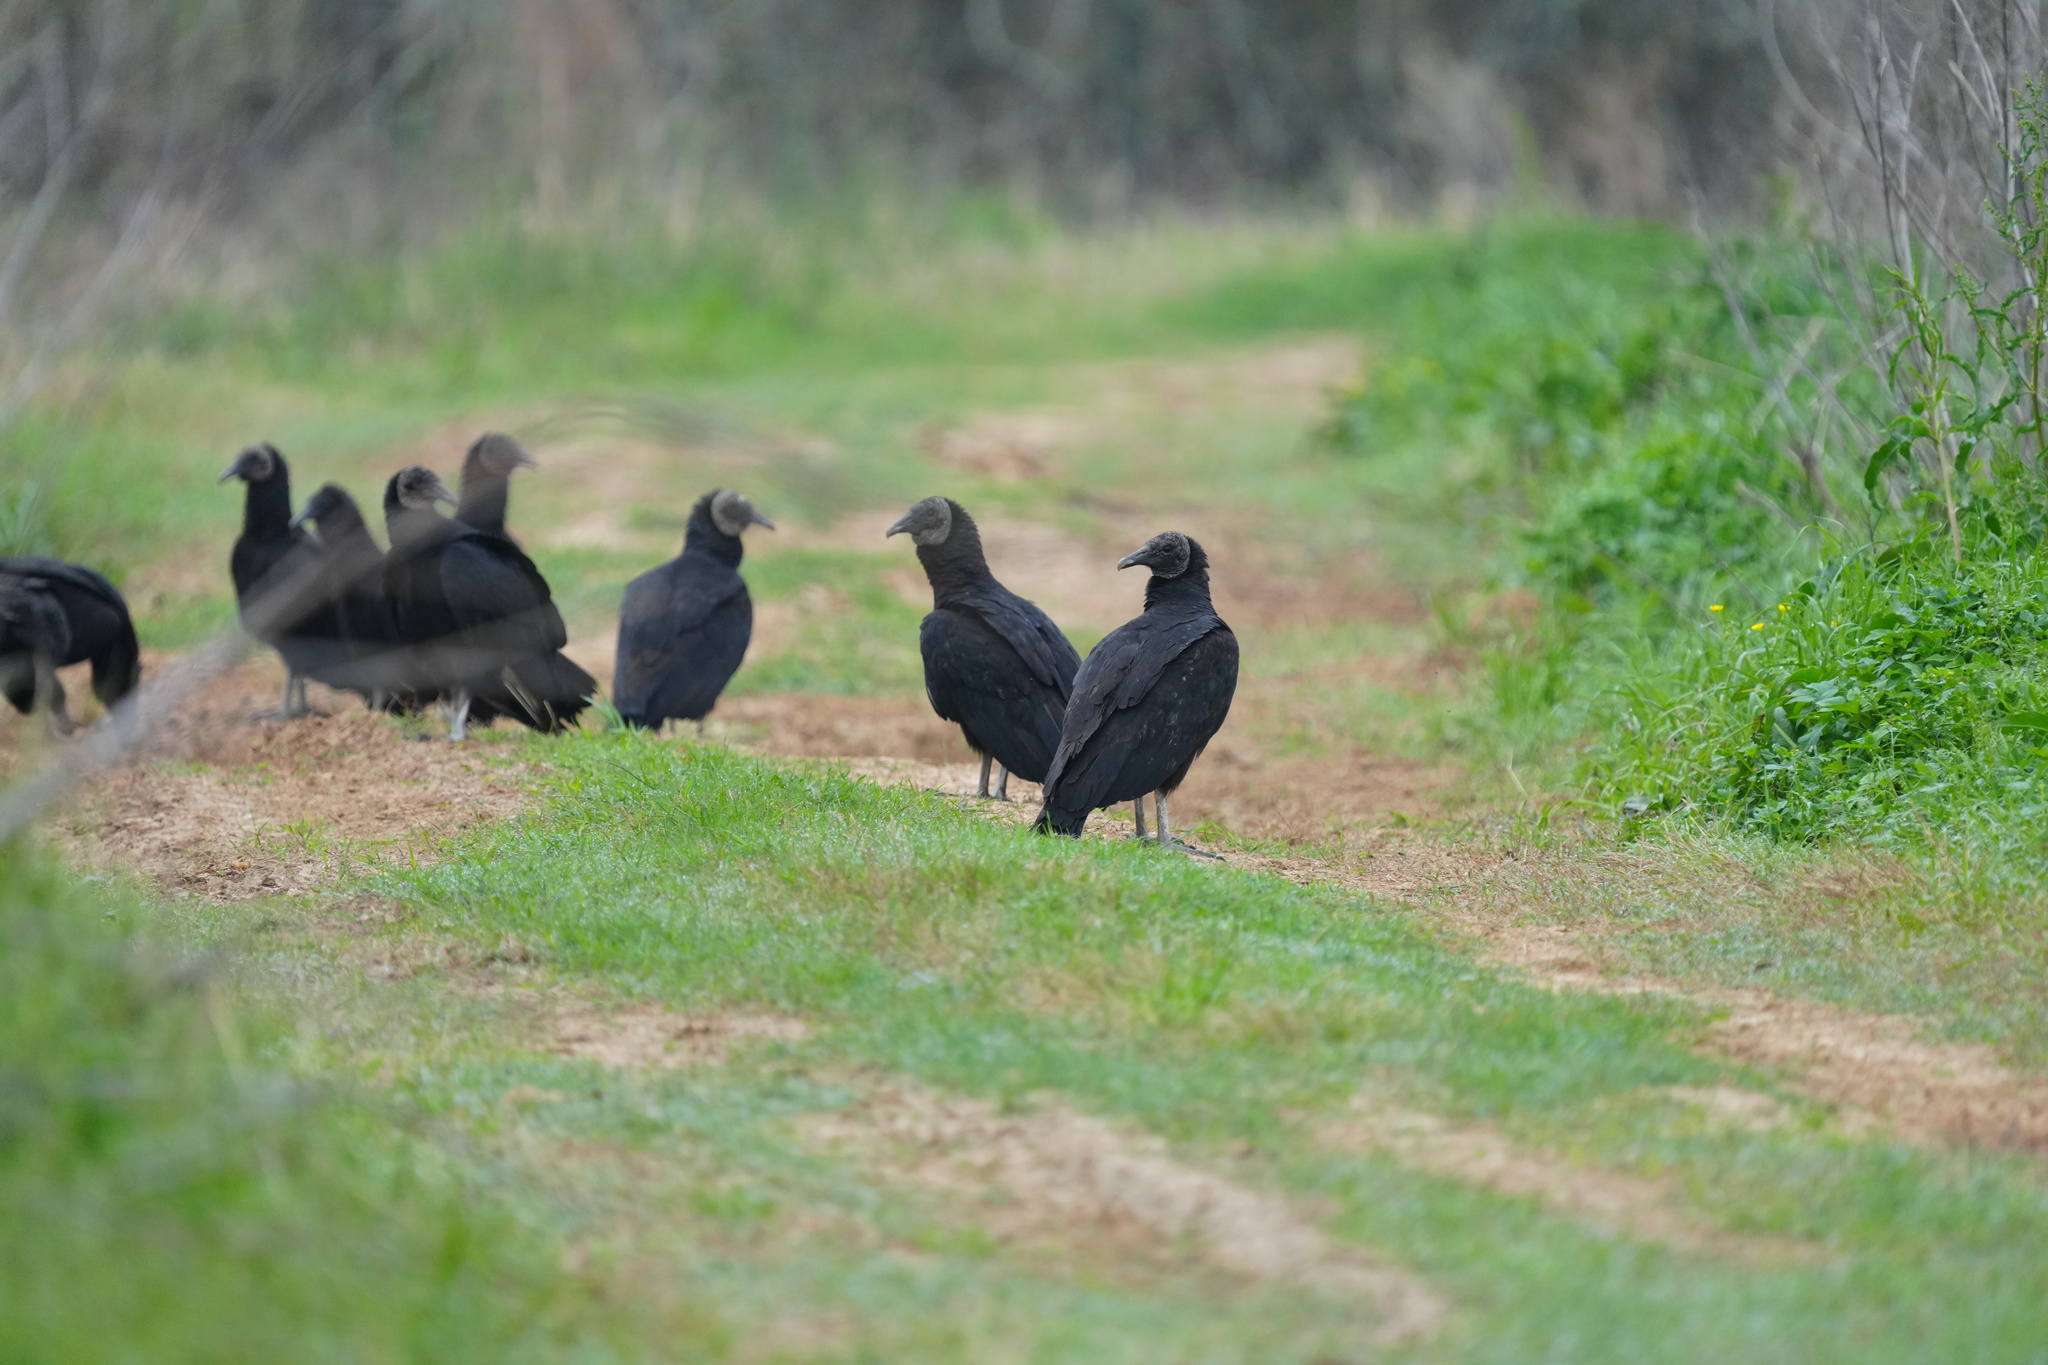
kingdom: Animalia
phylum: Chordata
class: Aves
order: Accipitriformes
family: Cathartidae
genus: Coragyps
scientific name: Coragyps atratus
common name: Black vulture
